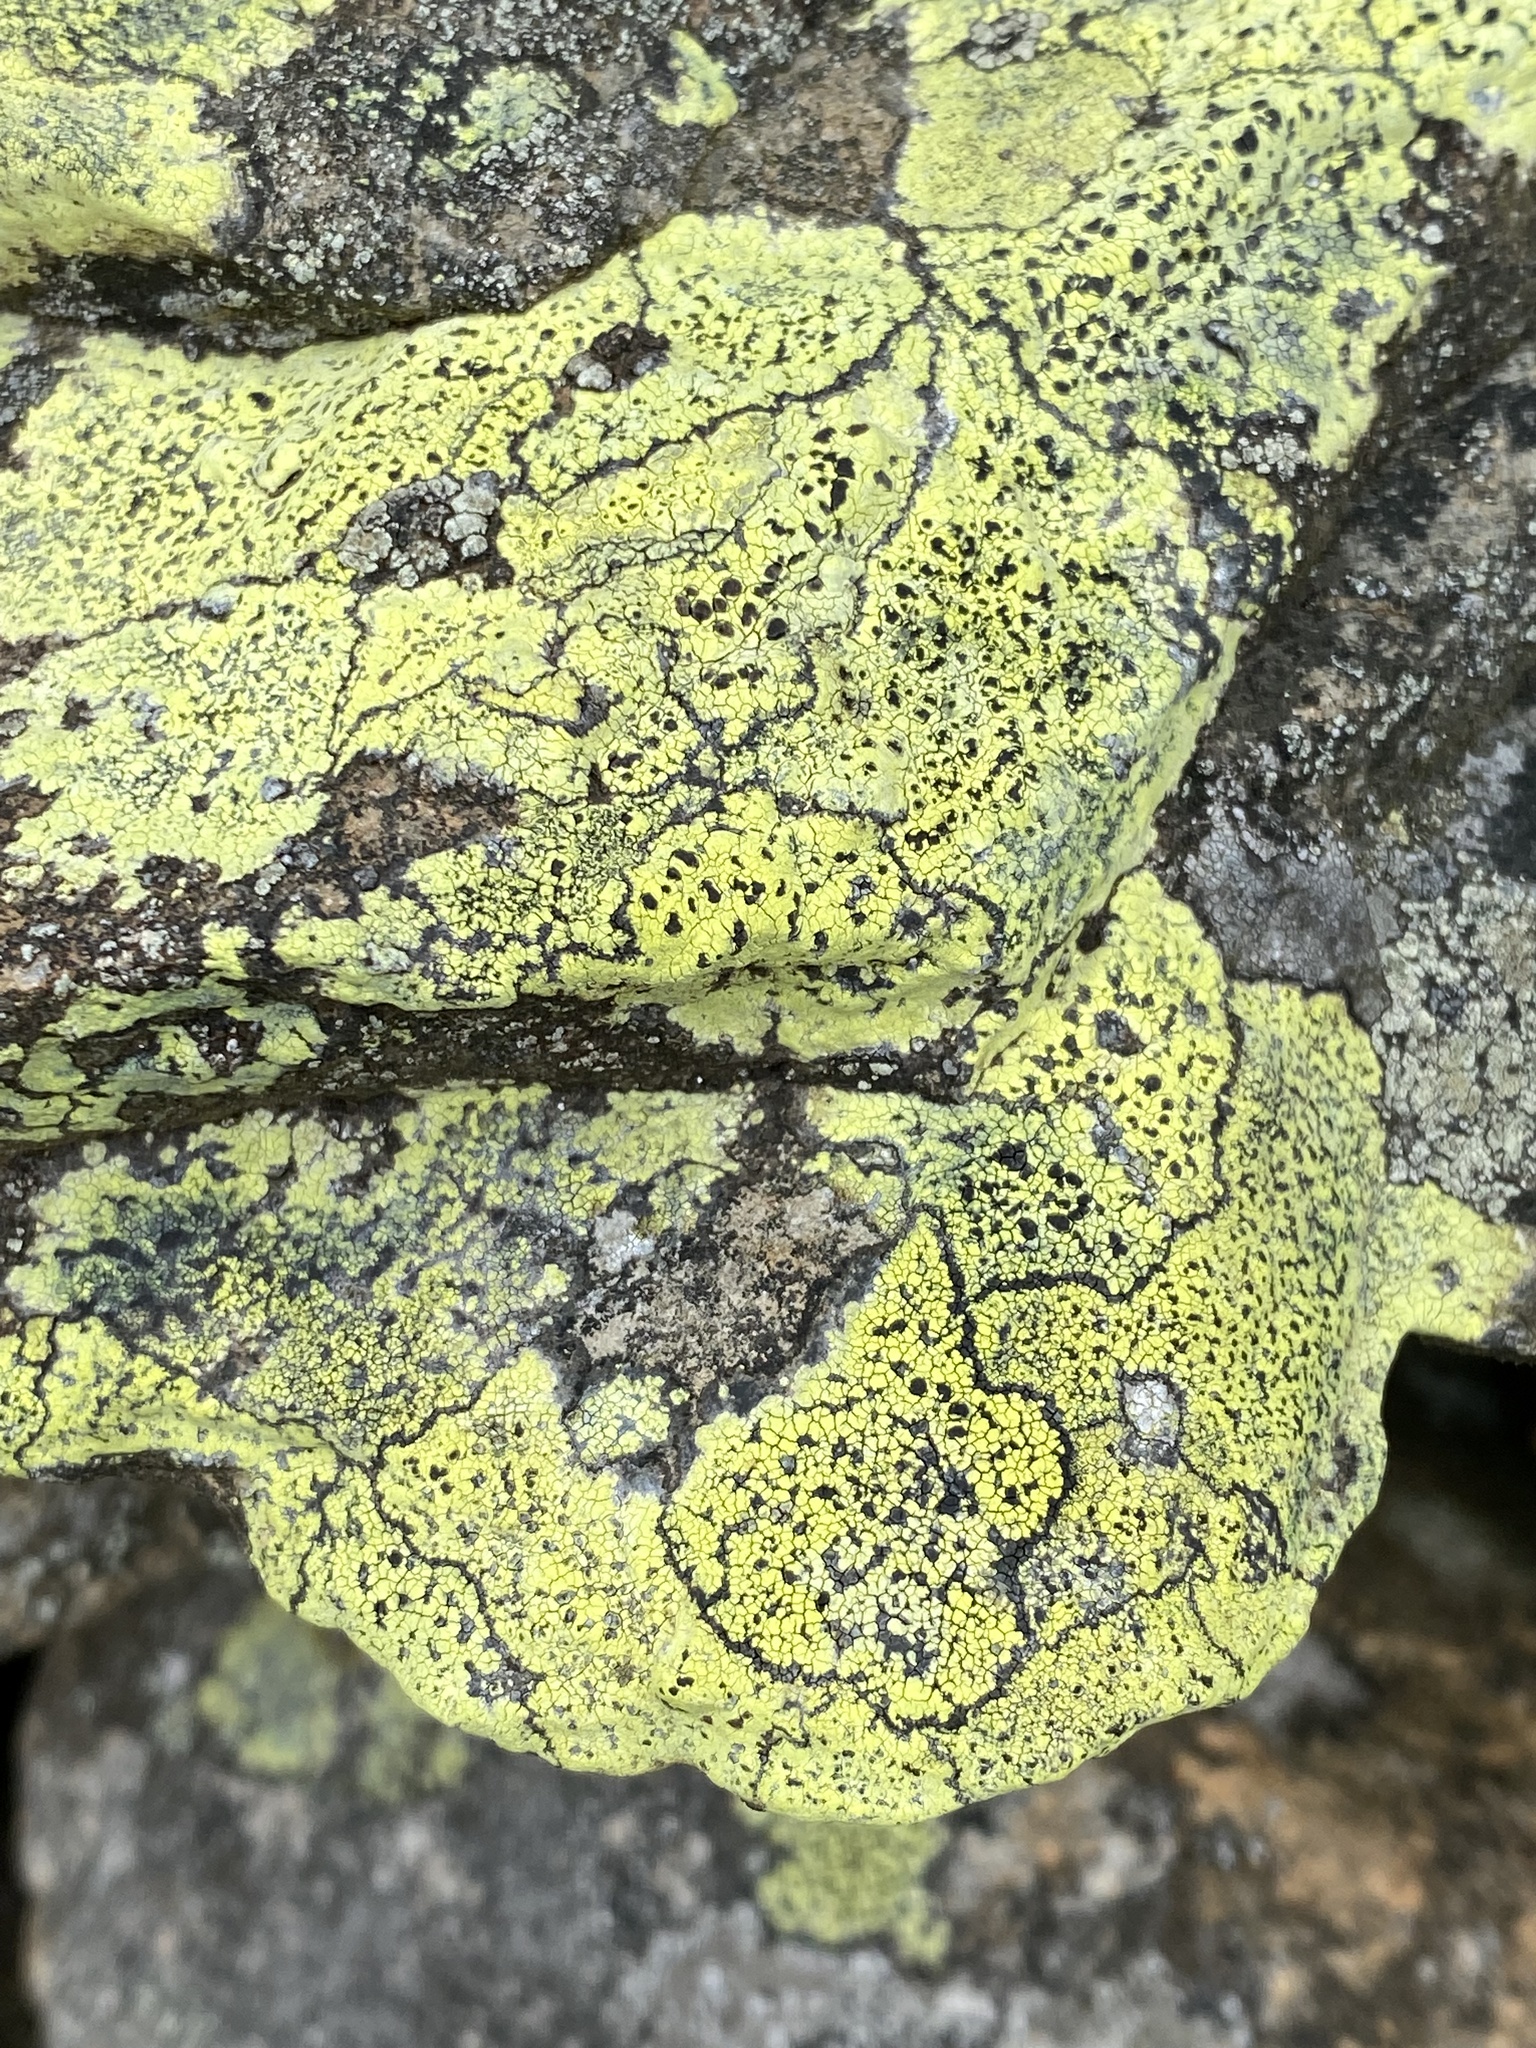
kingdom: Fungi
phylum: Ascomycota
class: Lecanoromycetes
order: Rhizocarpales
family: Rhizocarpaceae
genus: Rhizocarpon
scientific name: Rhizocarpon geographicum
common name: Yellow map lichen
